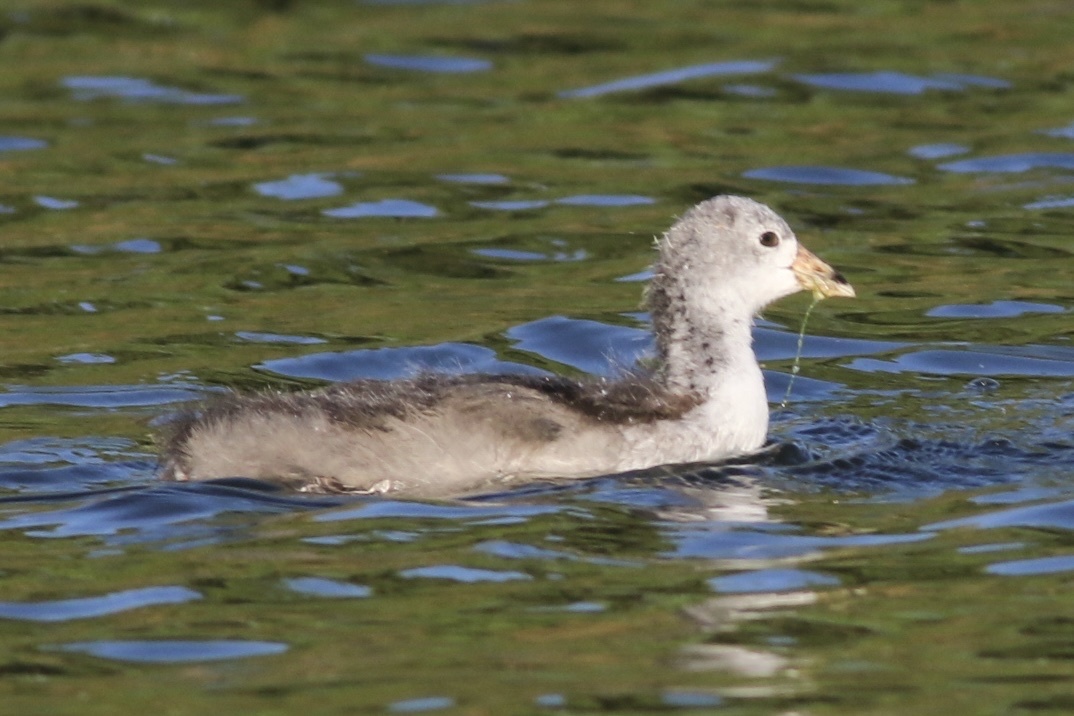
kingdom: Animalia
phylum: Chordata
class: Aves
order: Gruiformes
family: Rallidae
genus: Fulica
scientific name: Fulica americana
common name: American coot
